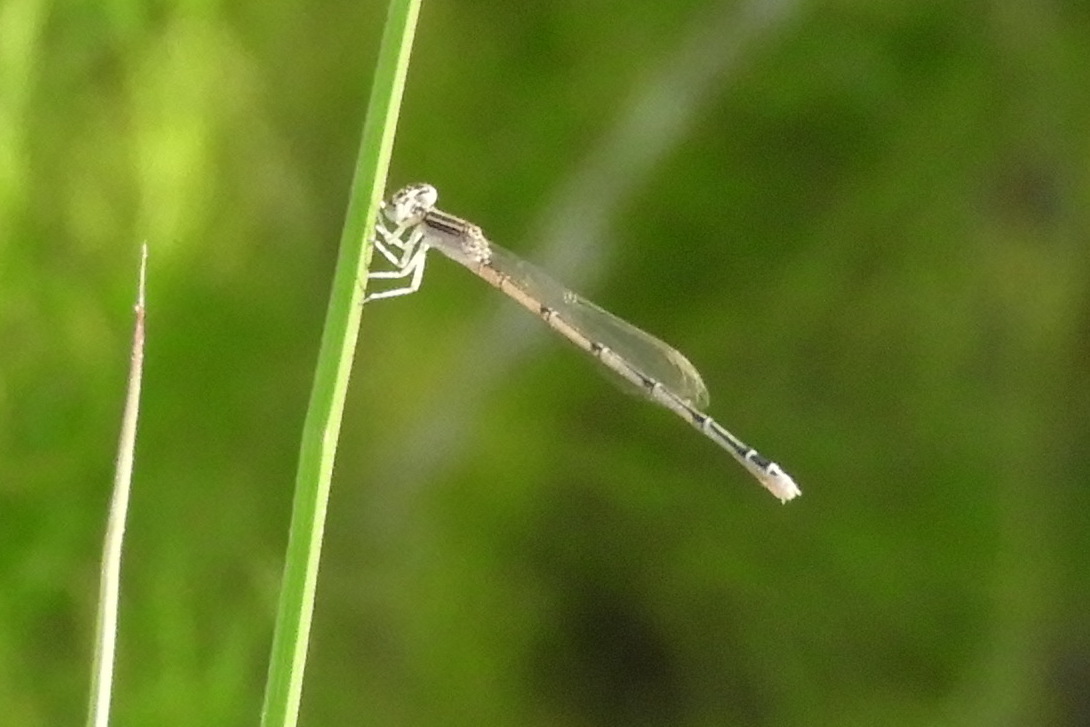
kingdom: Animalia
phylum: Arthropoda
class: Insecta
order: Odonata
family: Coenagrionidae
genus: Enallagma
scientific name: Enallagma basidens
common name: Double-striped bluet
